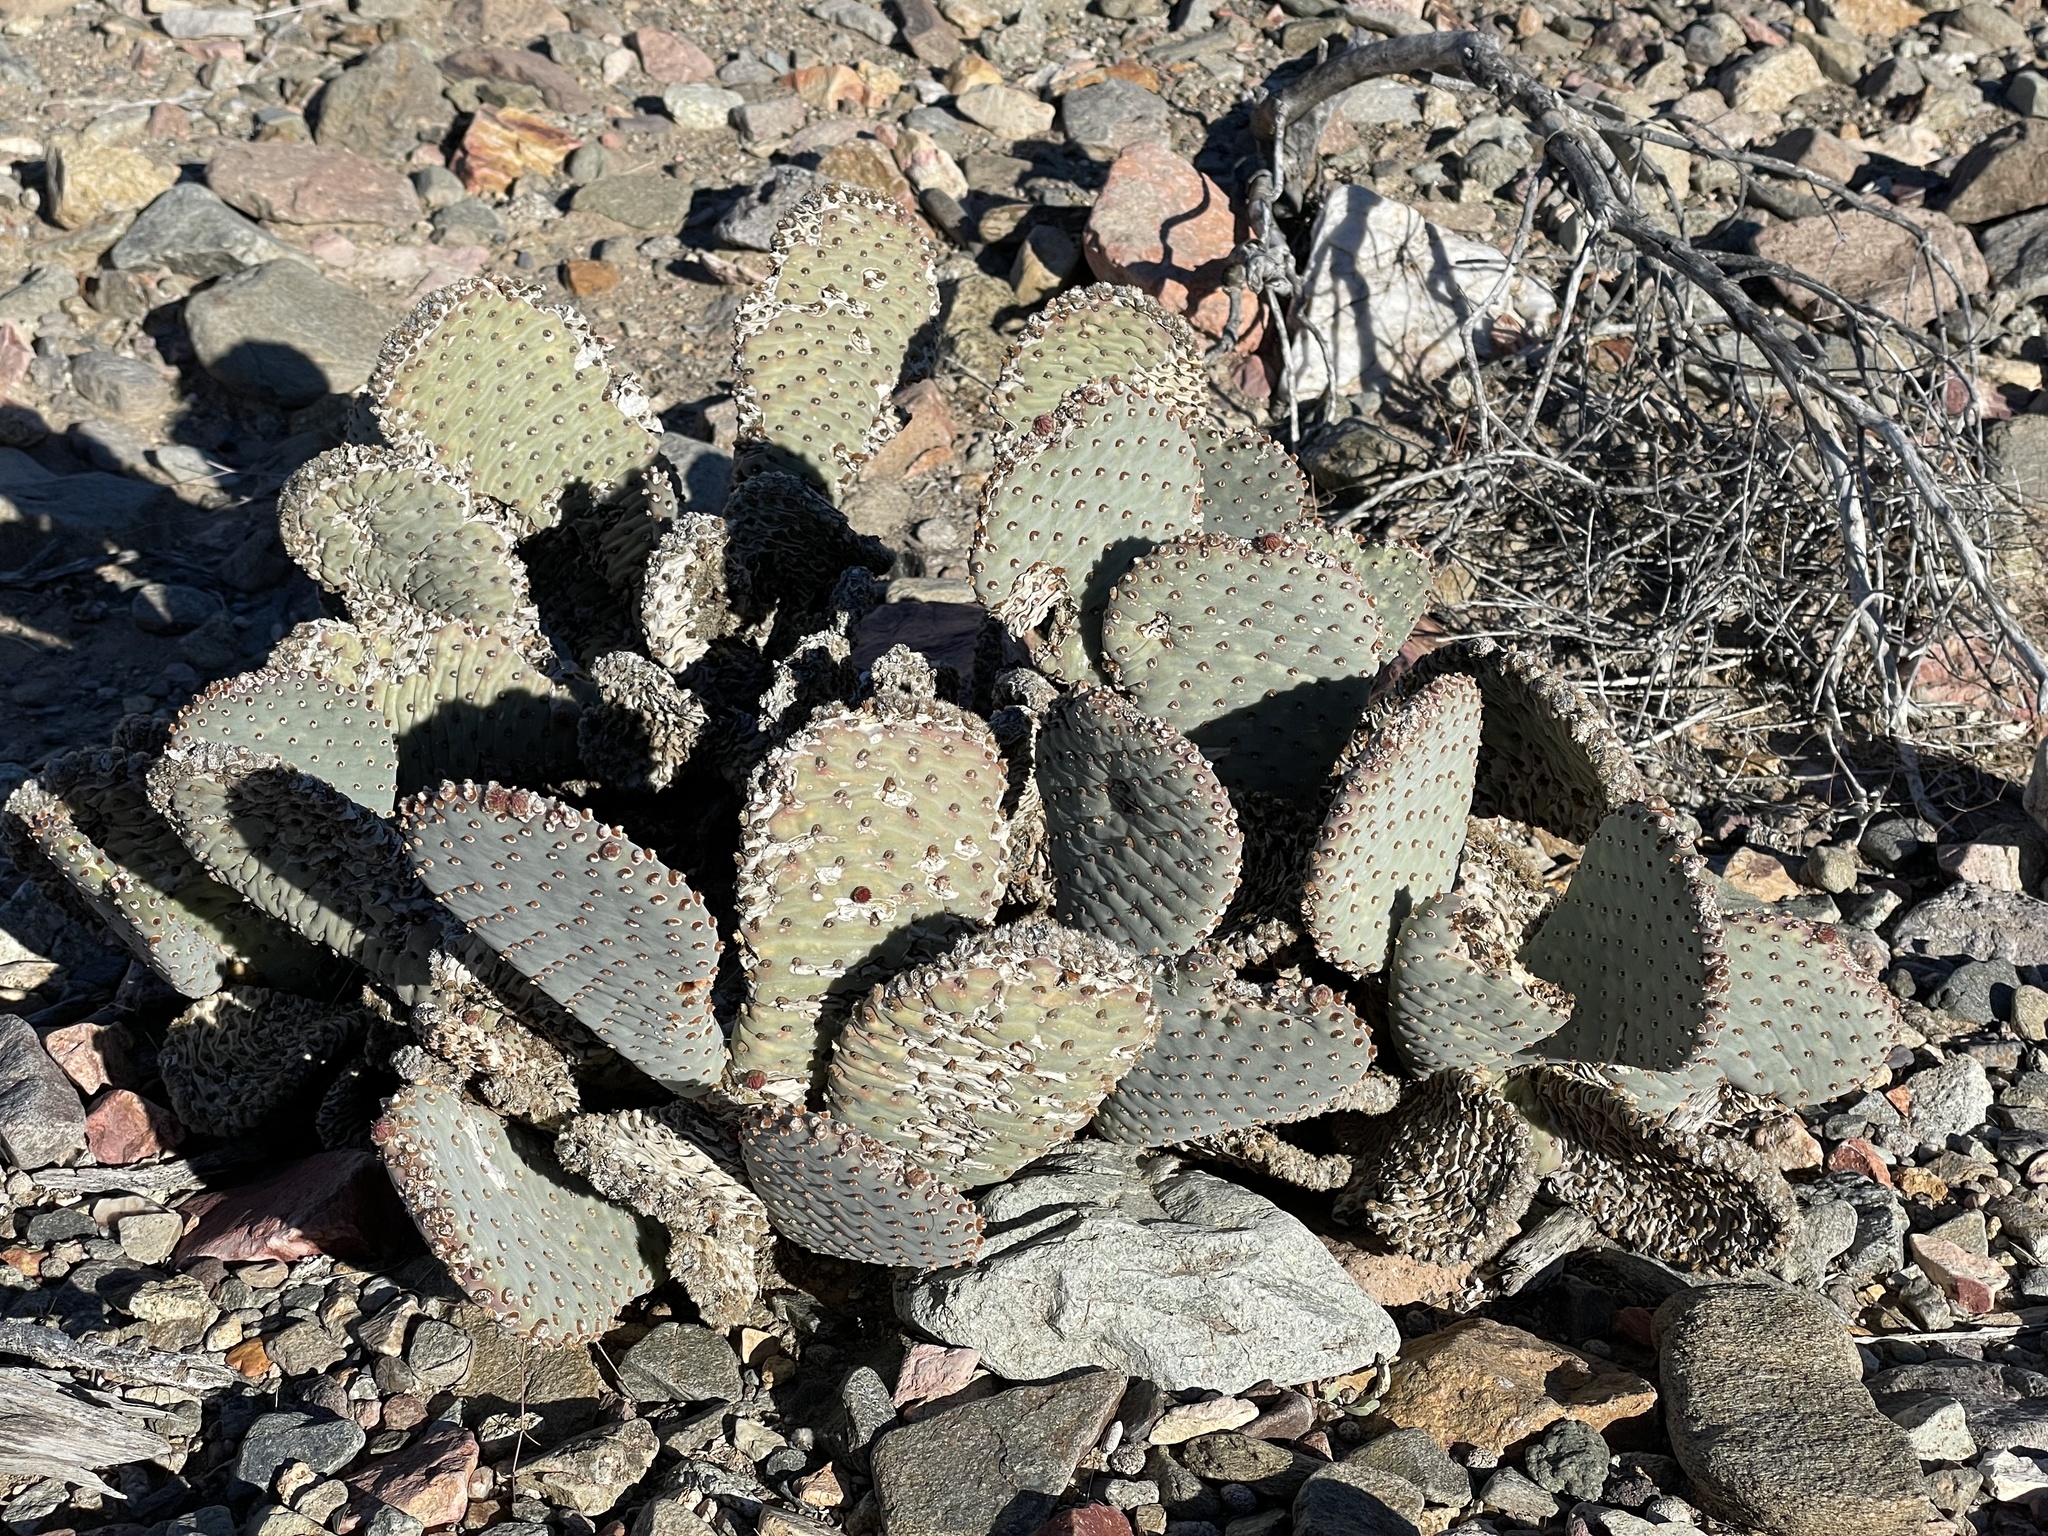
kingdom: Plantae
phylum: Tracheophyta
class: Magnoliopsida
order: Caryophyllales
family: Cactaceae
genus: Opuntia
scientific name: Opuntia basilaris
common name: Beavertail prickly-pear
